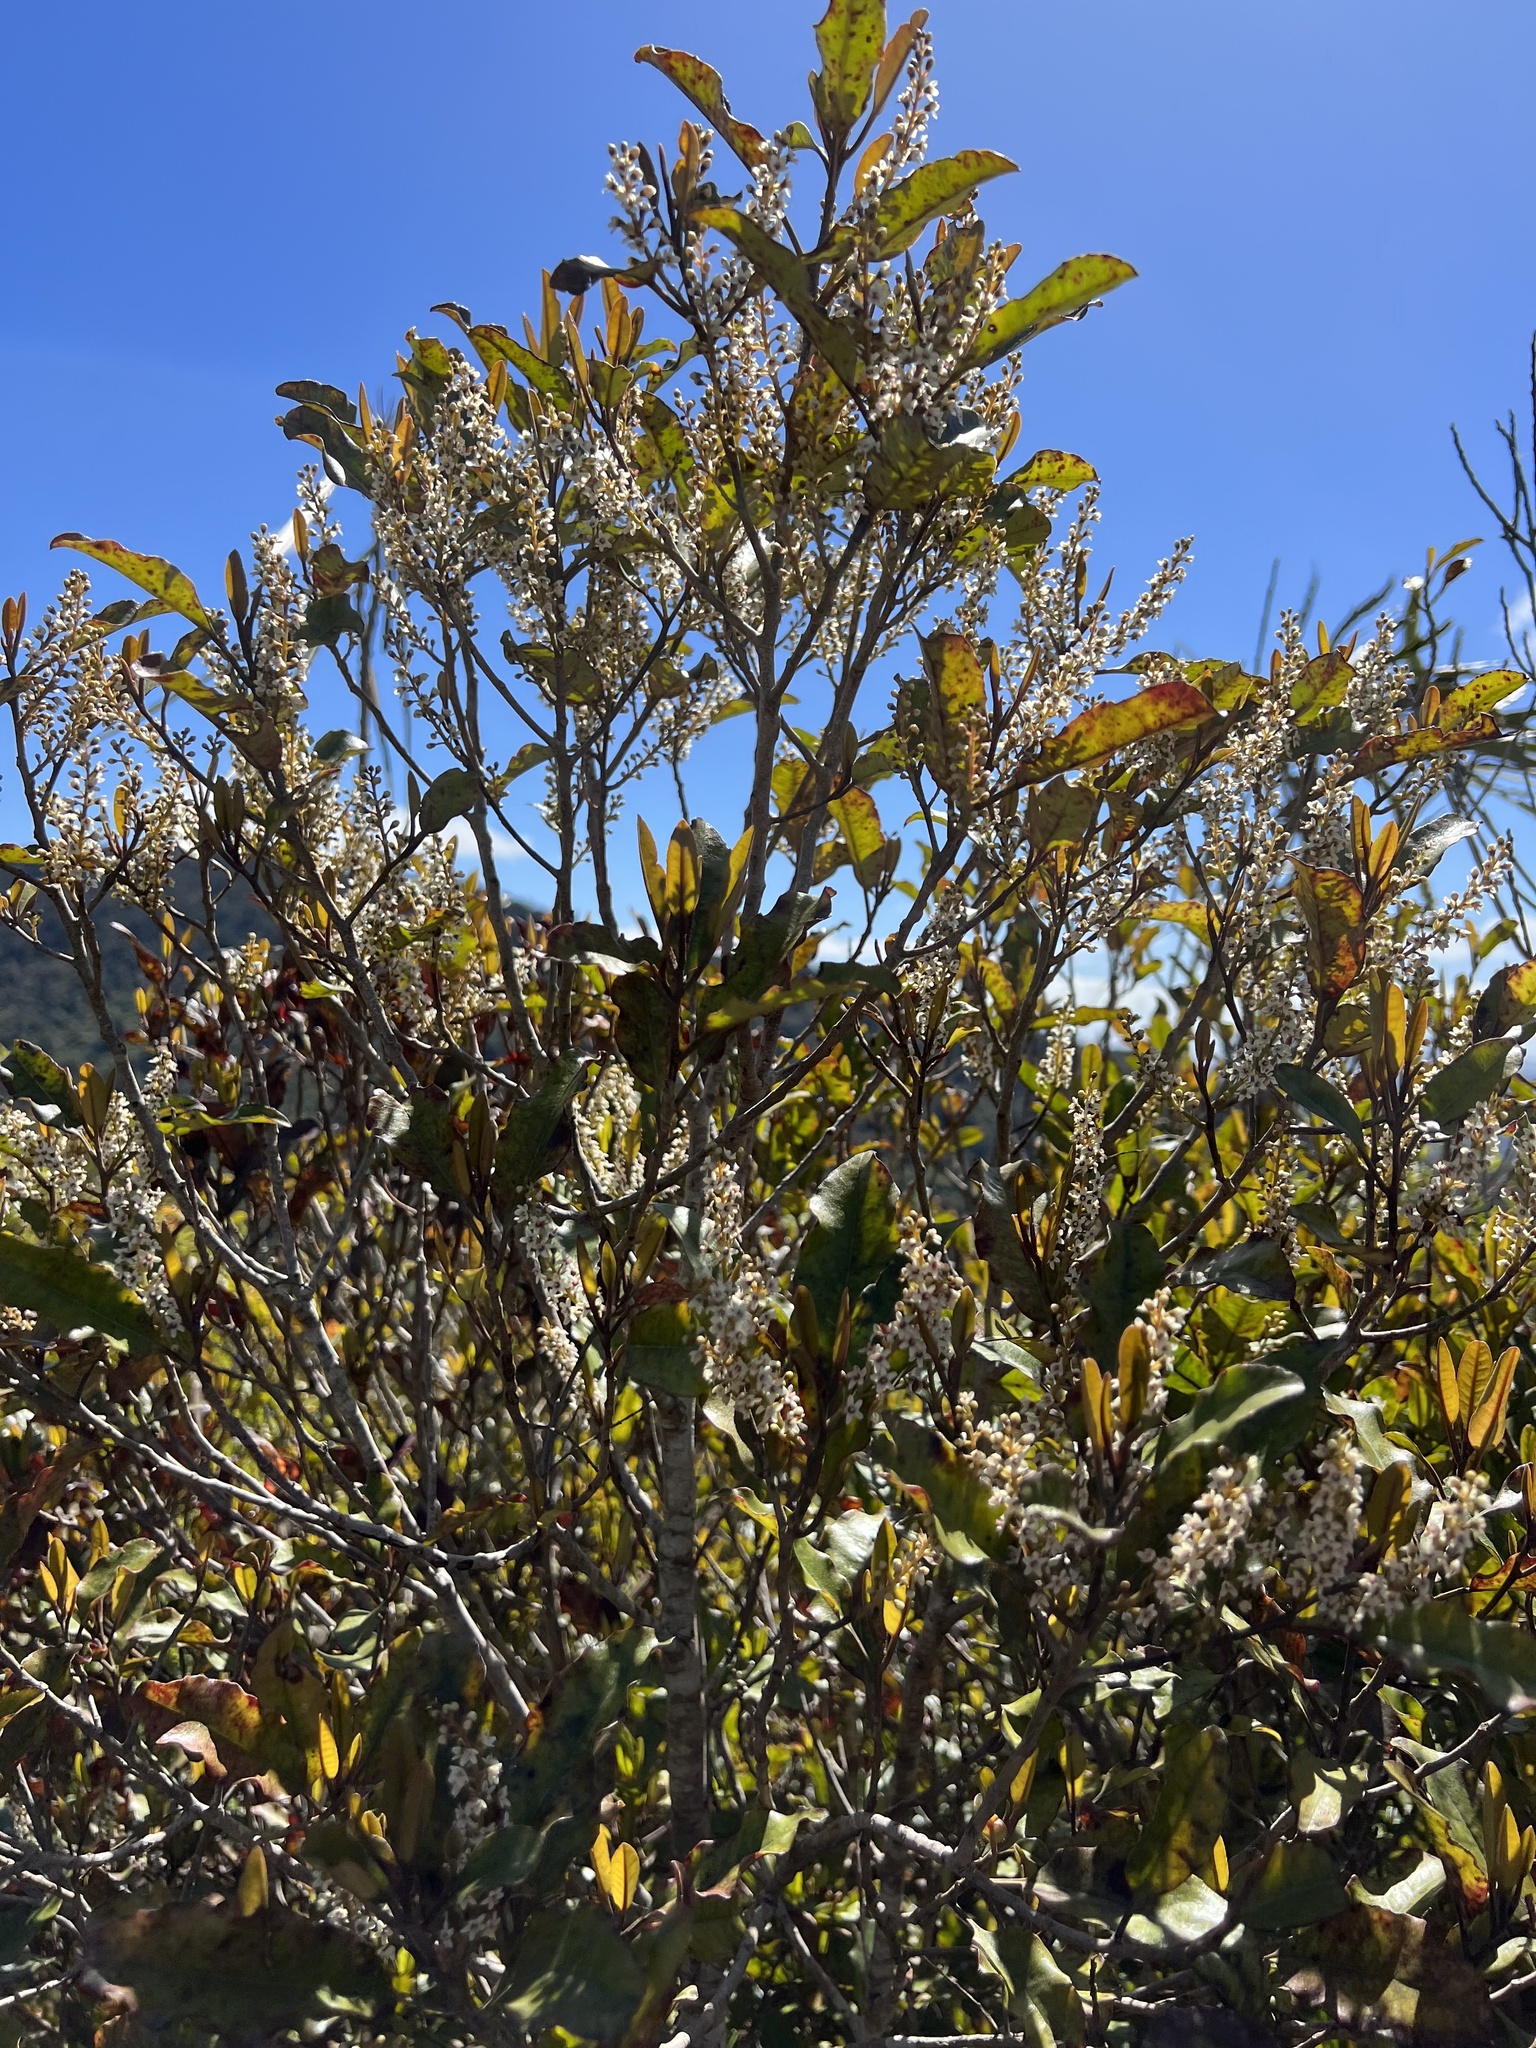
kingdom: Plantae
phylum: Tracheophyta
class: Magnoliopsida
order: Paracryphiales
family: Paracryphiaceae
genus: Quintinia
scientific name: Quintinia serrata
